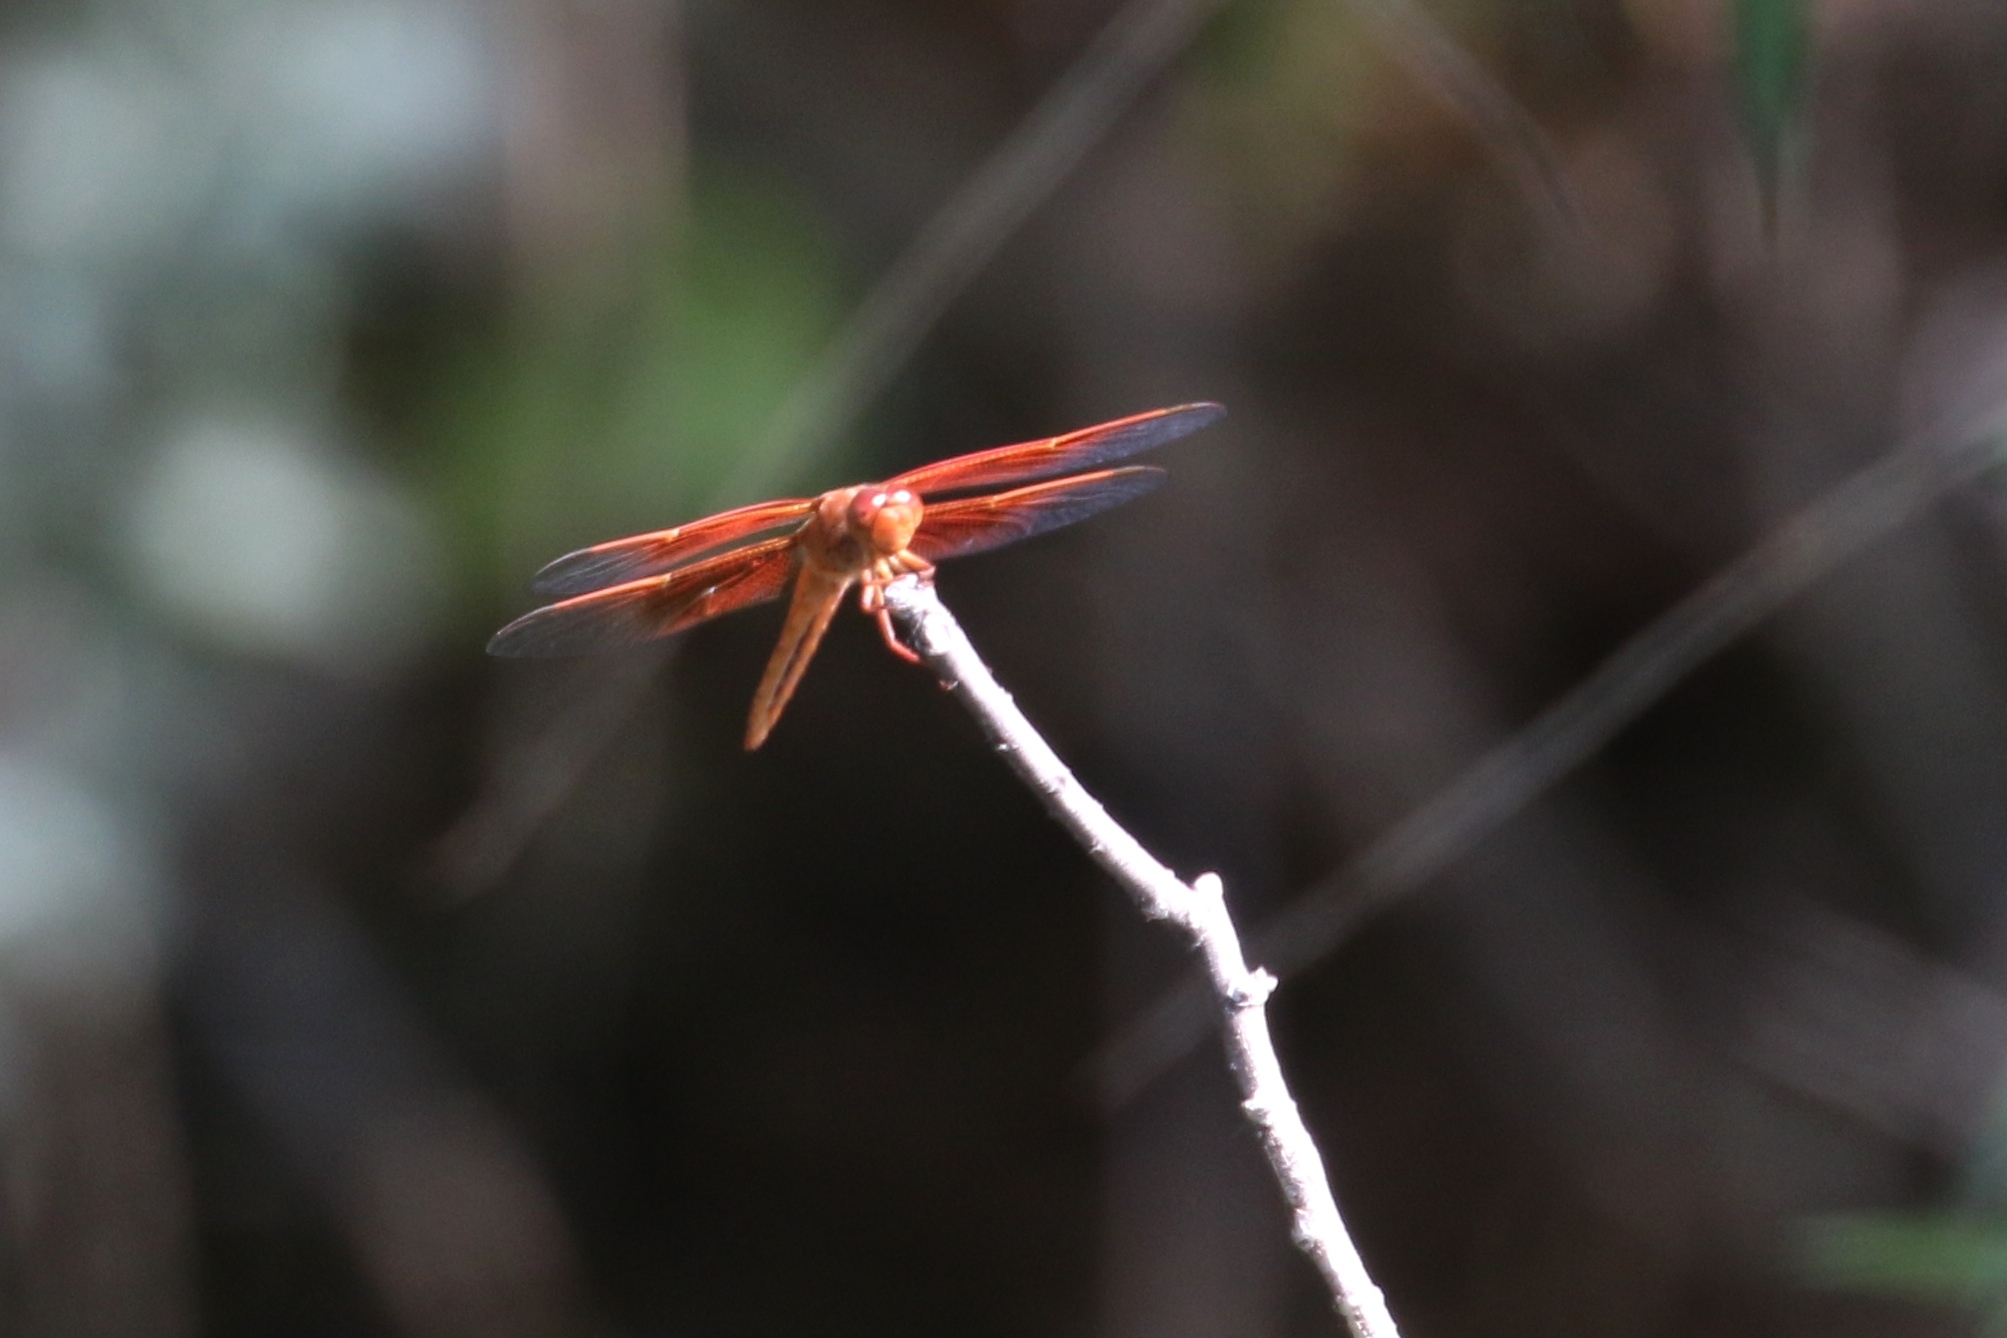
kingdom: Animalia
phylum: Arthropoda
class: Insecta
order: Odonata
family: Libellulidae
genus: Libellula
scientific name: Libellula saturata
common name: Flame skimmer
